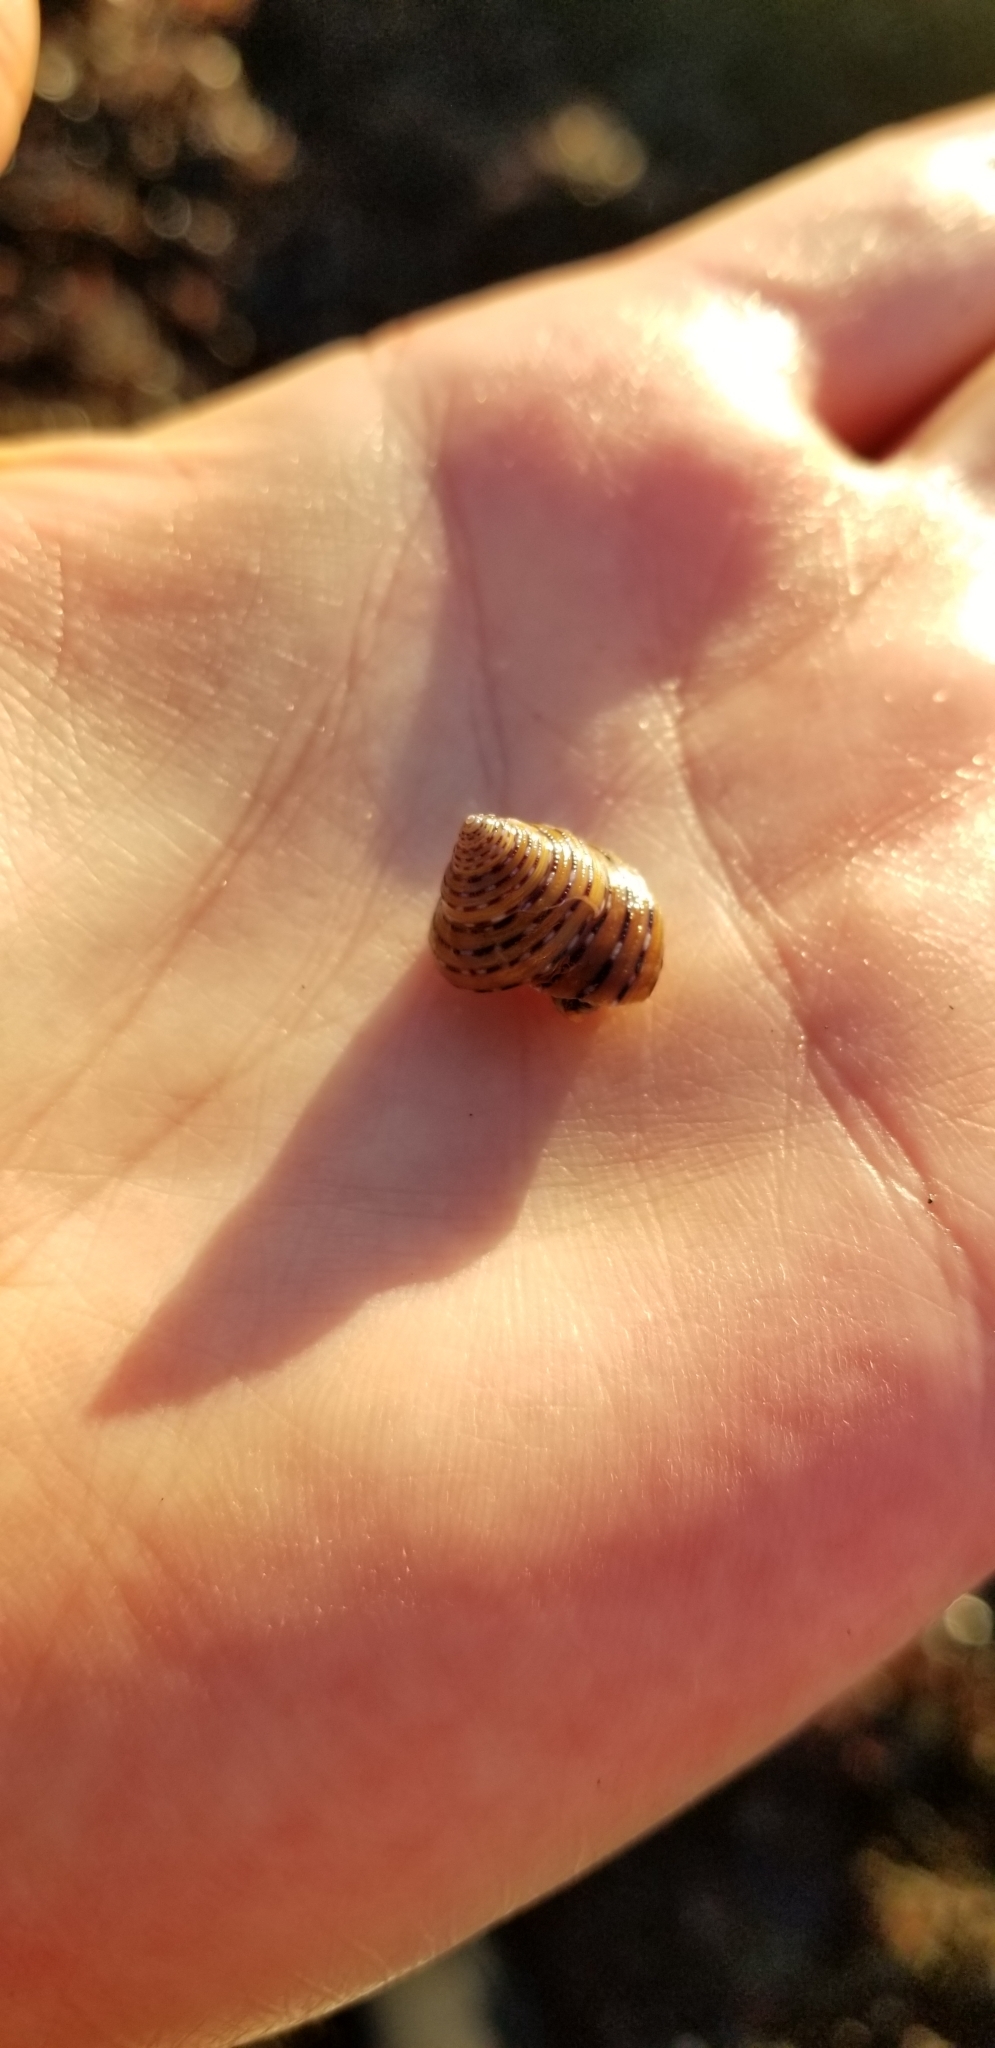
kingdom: Animalia
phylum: Mollusca
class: Gastropoda
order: Trochida
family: Calliostomatidae
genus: Calliostoma
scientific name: Calliostoma tricolor
